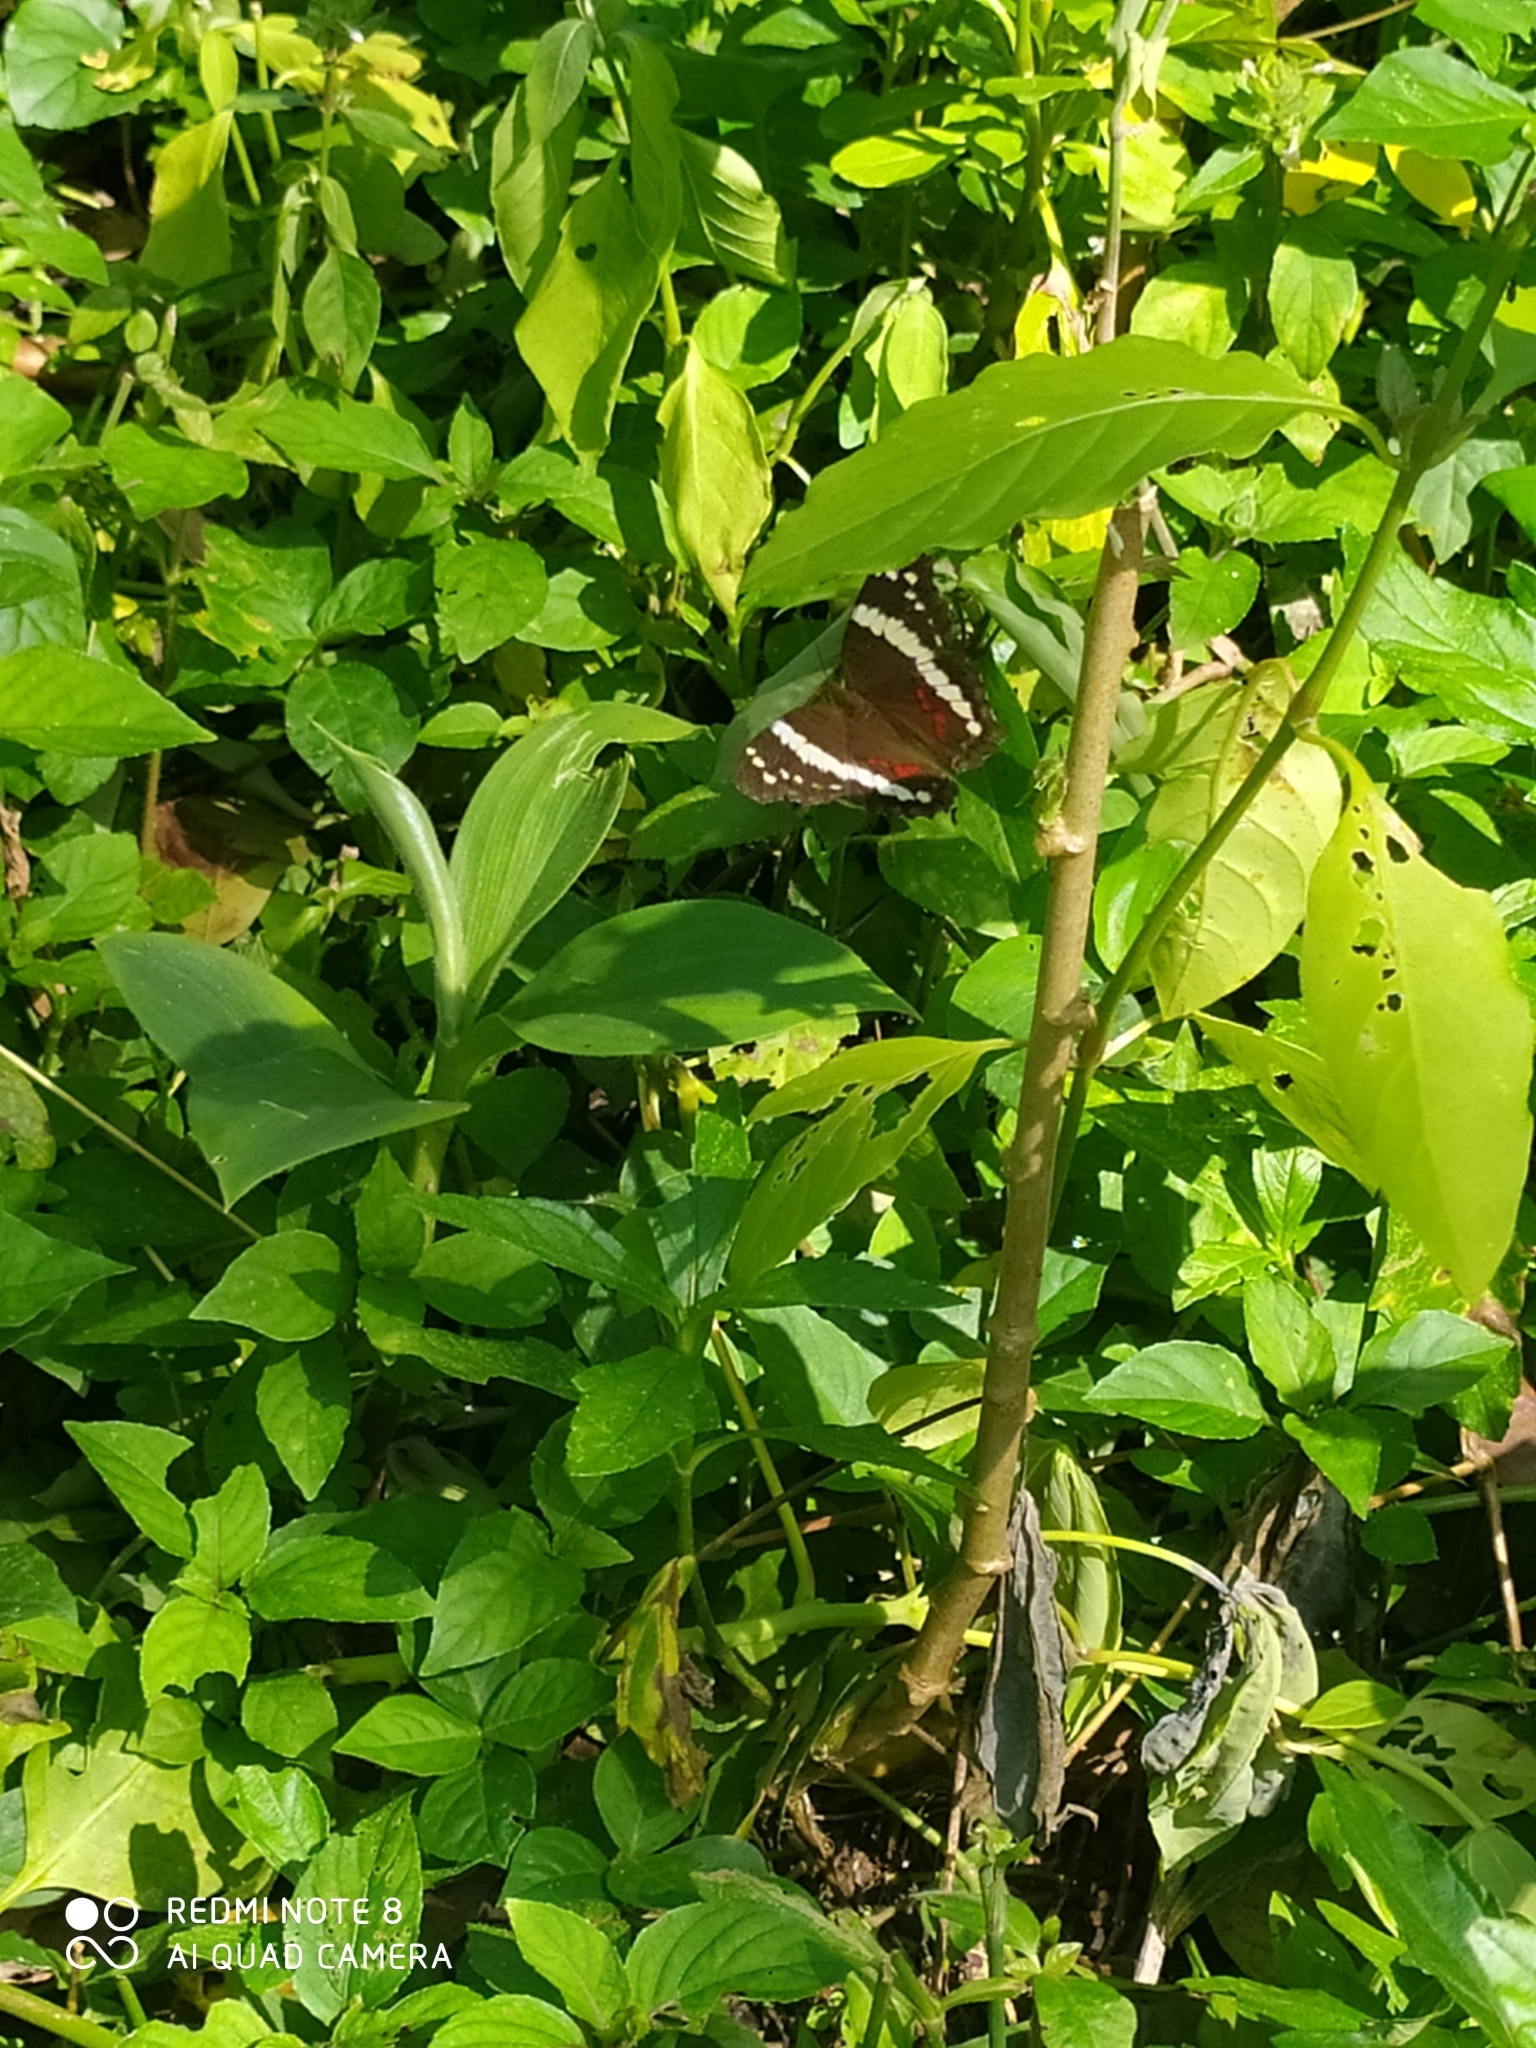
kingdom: Animalia
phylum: Arthropoda
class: Insecta
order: Lepidoptera
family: Nymphalidae
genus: Anartia
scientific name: Anartia fatima
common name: Banded peacock
